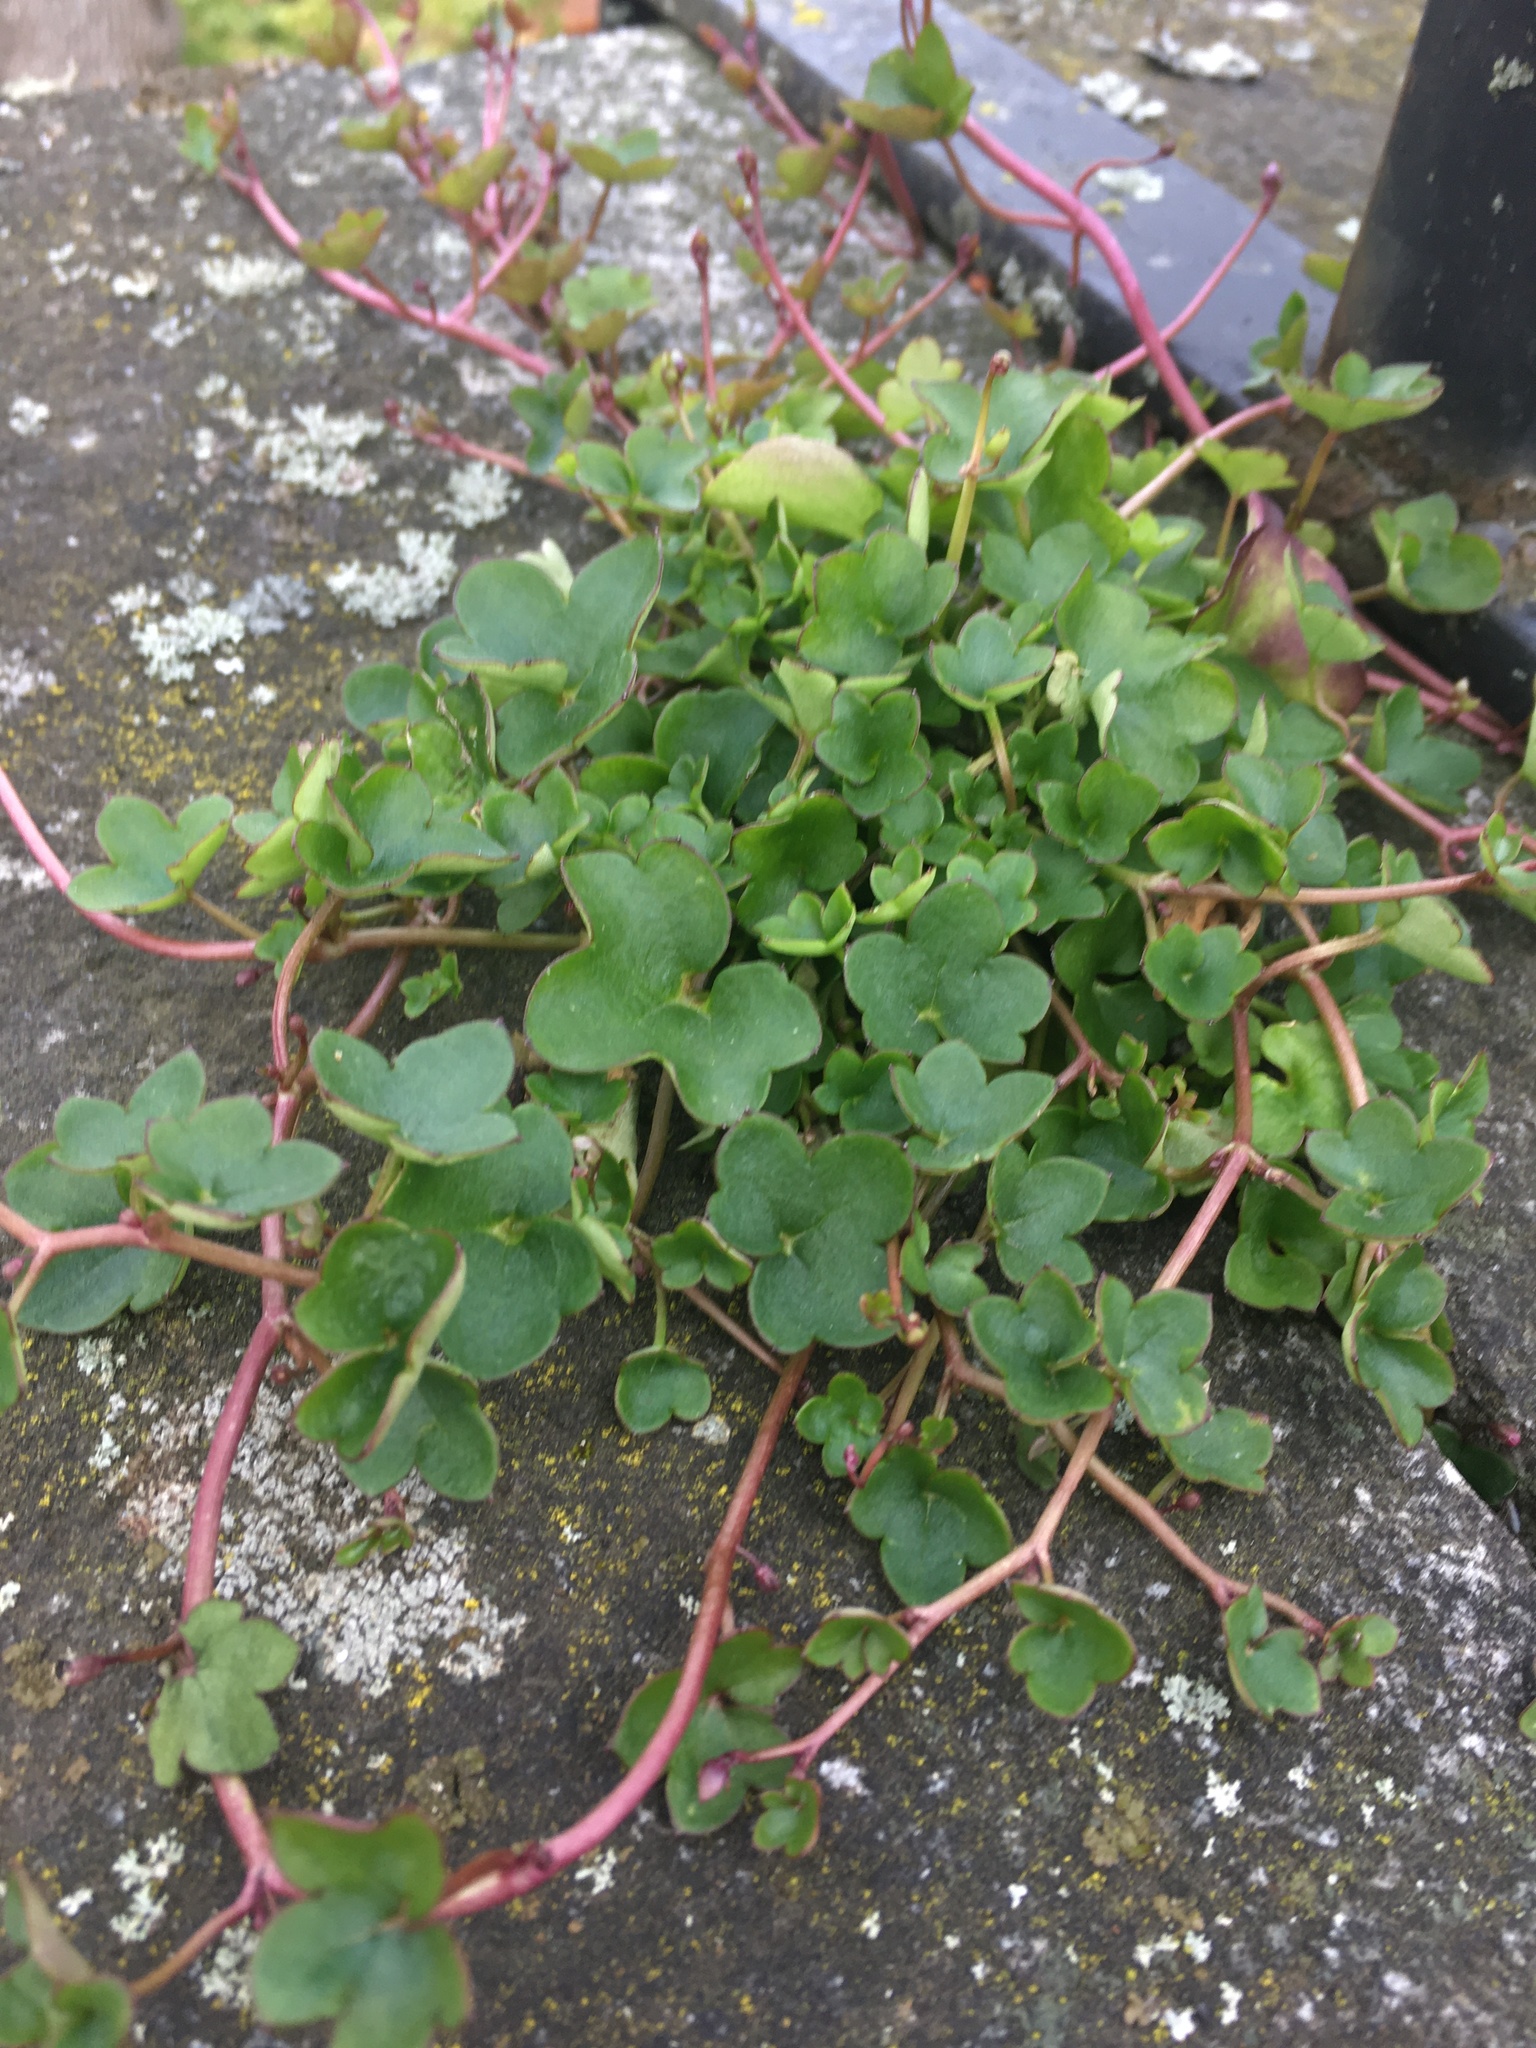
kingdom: Plantae
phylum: Tracheophyta
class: Magnoliopsida
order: Lamiales
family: Plantaginaceae
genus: Cymbalaria
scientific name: Cymbalaria muralis
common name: Ivy-leaved toadflax
